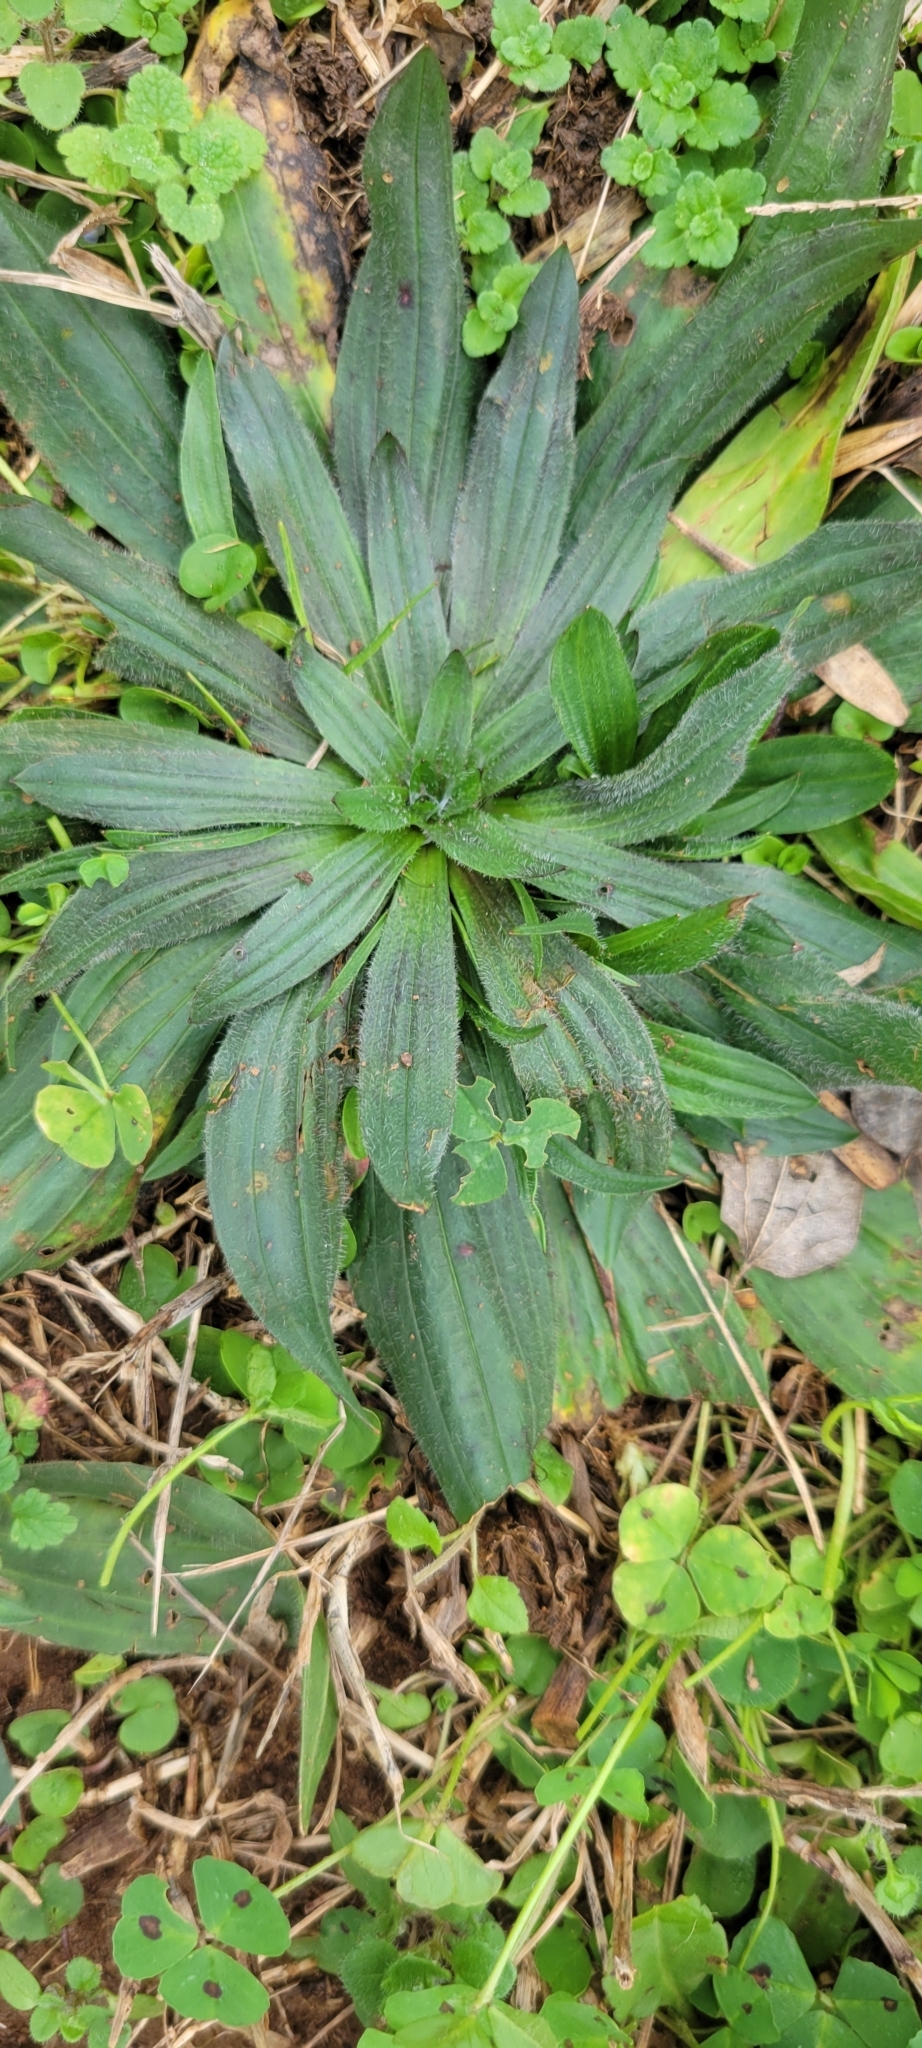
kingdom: Plantae
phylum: Tracheophyta
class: Magnoliopsida
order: Lamiales
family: Plantaginaceae
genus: Plantago
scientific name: Plantago lanceolata
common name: Ribwort plantain
